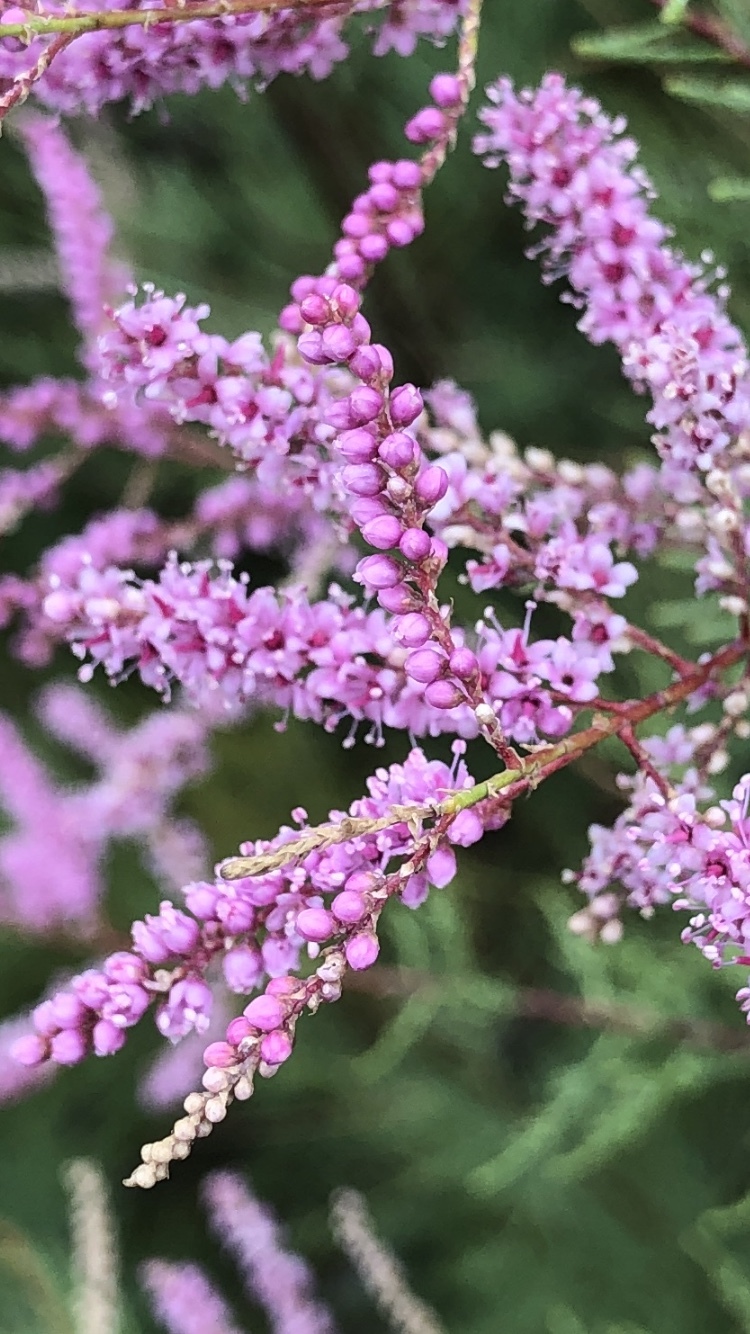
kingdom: Plantae
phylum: Tracheophyta
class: Magnoliopsida
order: Caryophyllales
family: Tamaricaceae
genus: Tamarix
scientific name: Tamarix ramosissima
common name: Pink tamarisk
